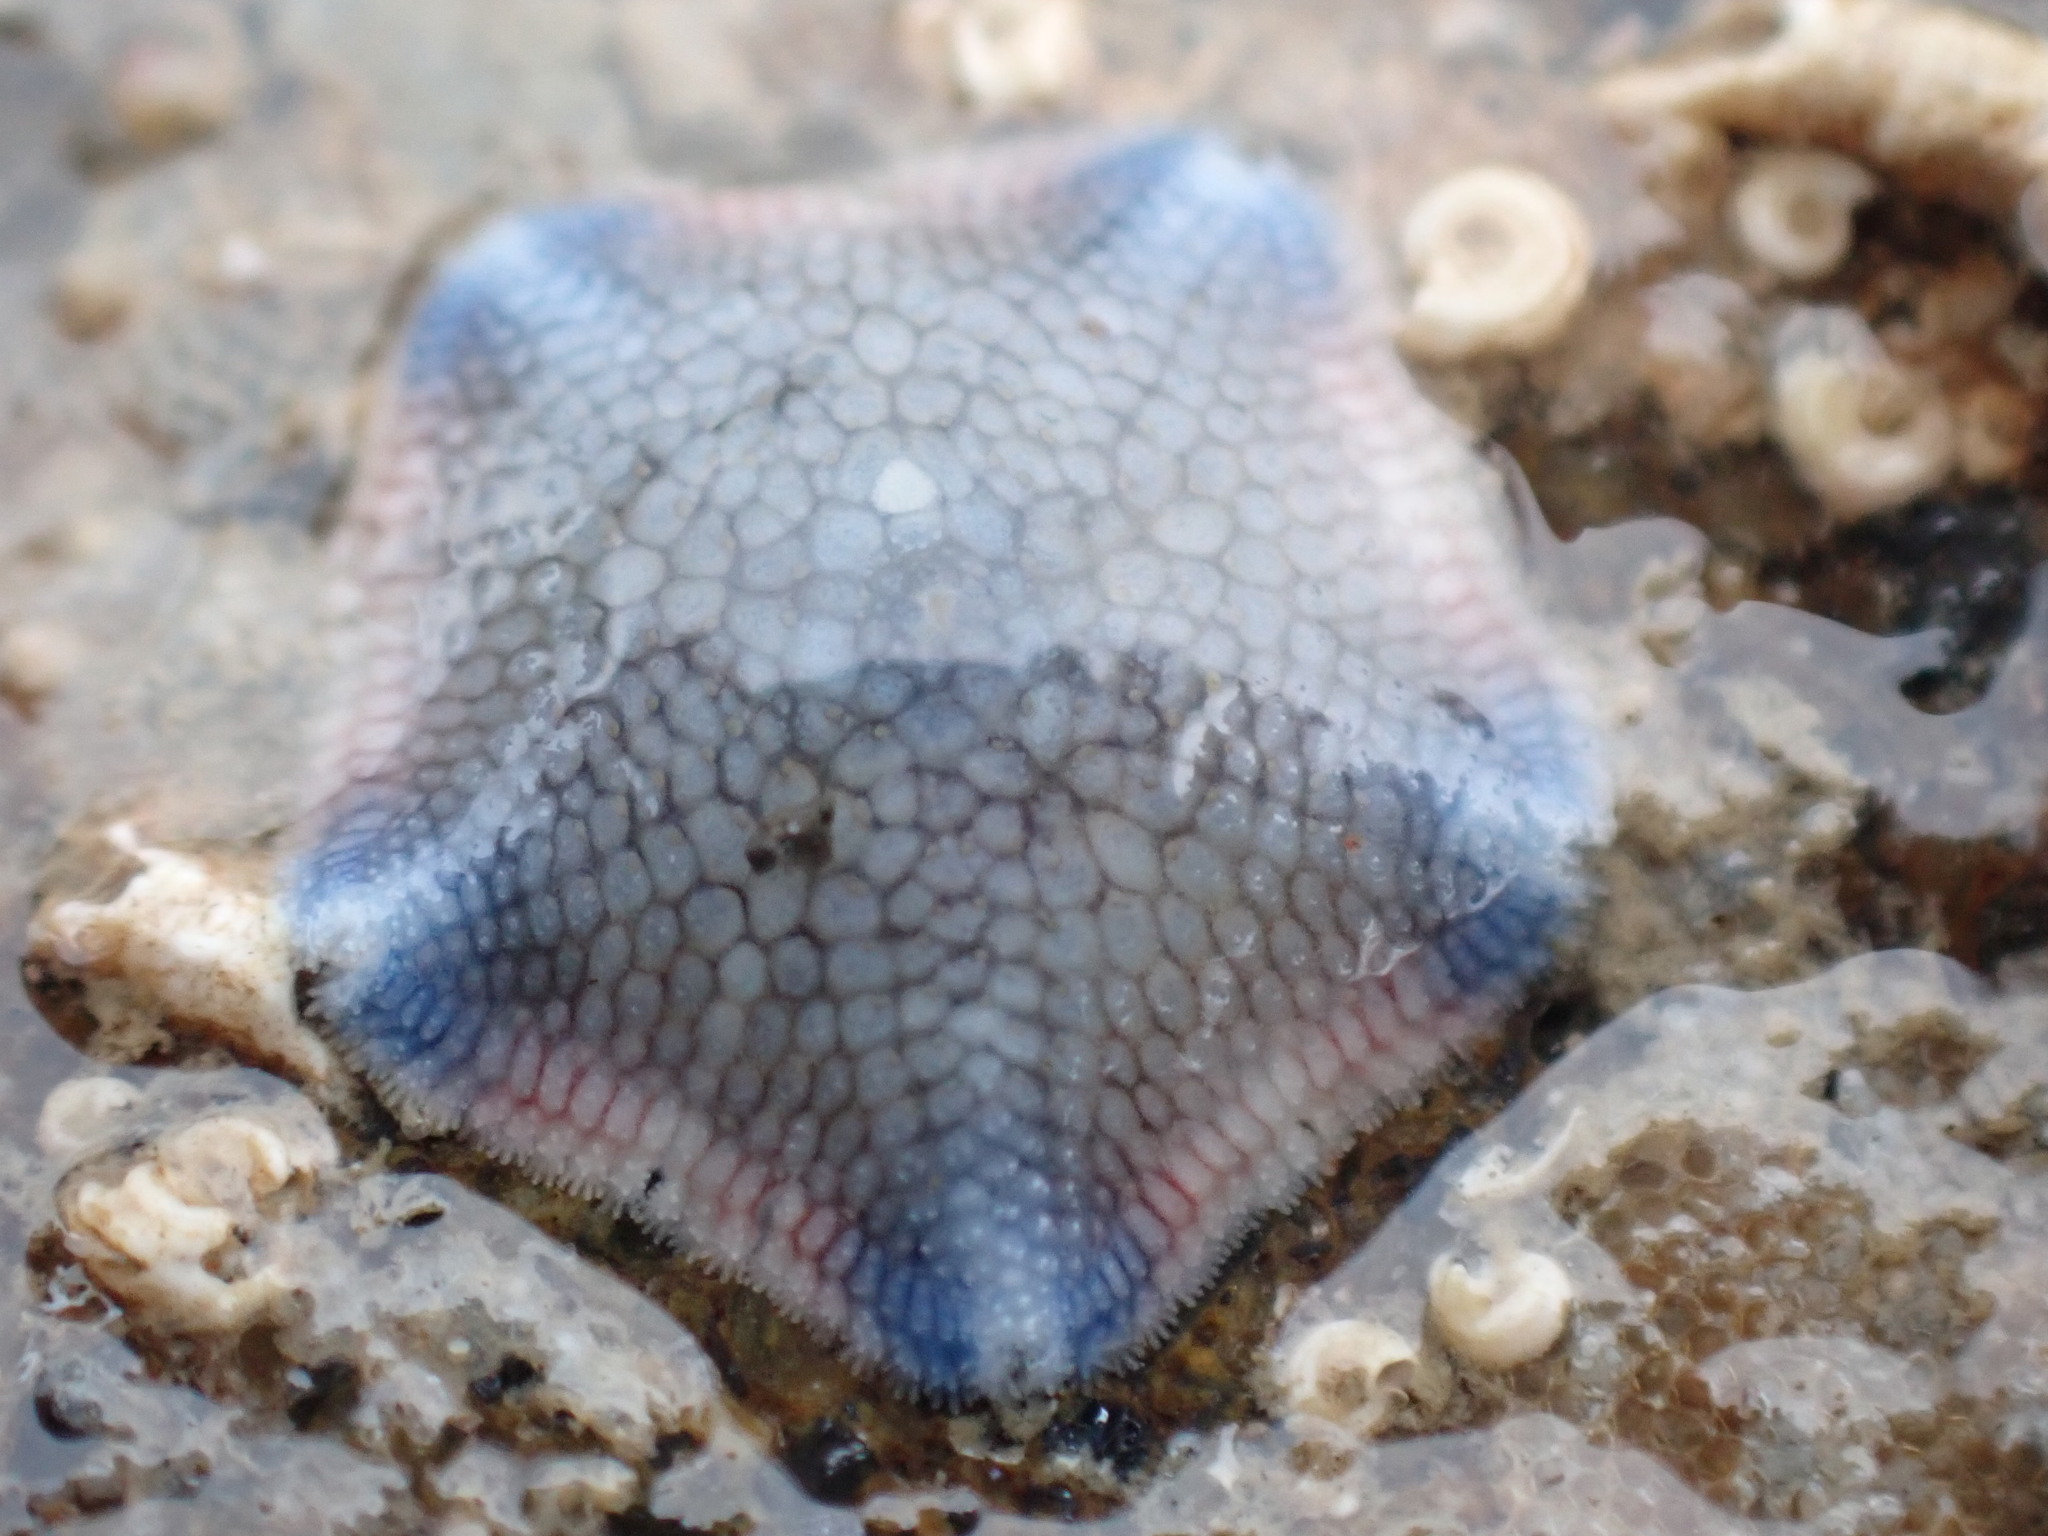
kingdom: Animalia
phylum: Echinodermata
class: Asteroidea
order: Valvatida
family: Asterinidae
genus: Patiriella
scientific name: Patiriella regularis
